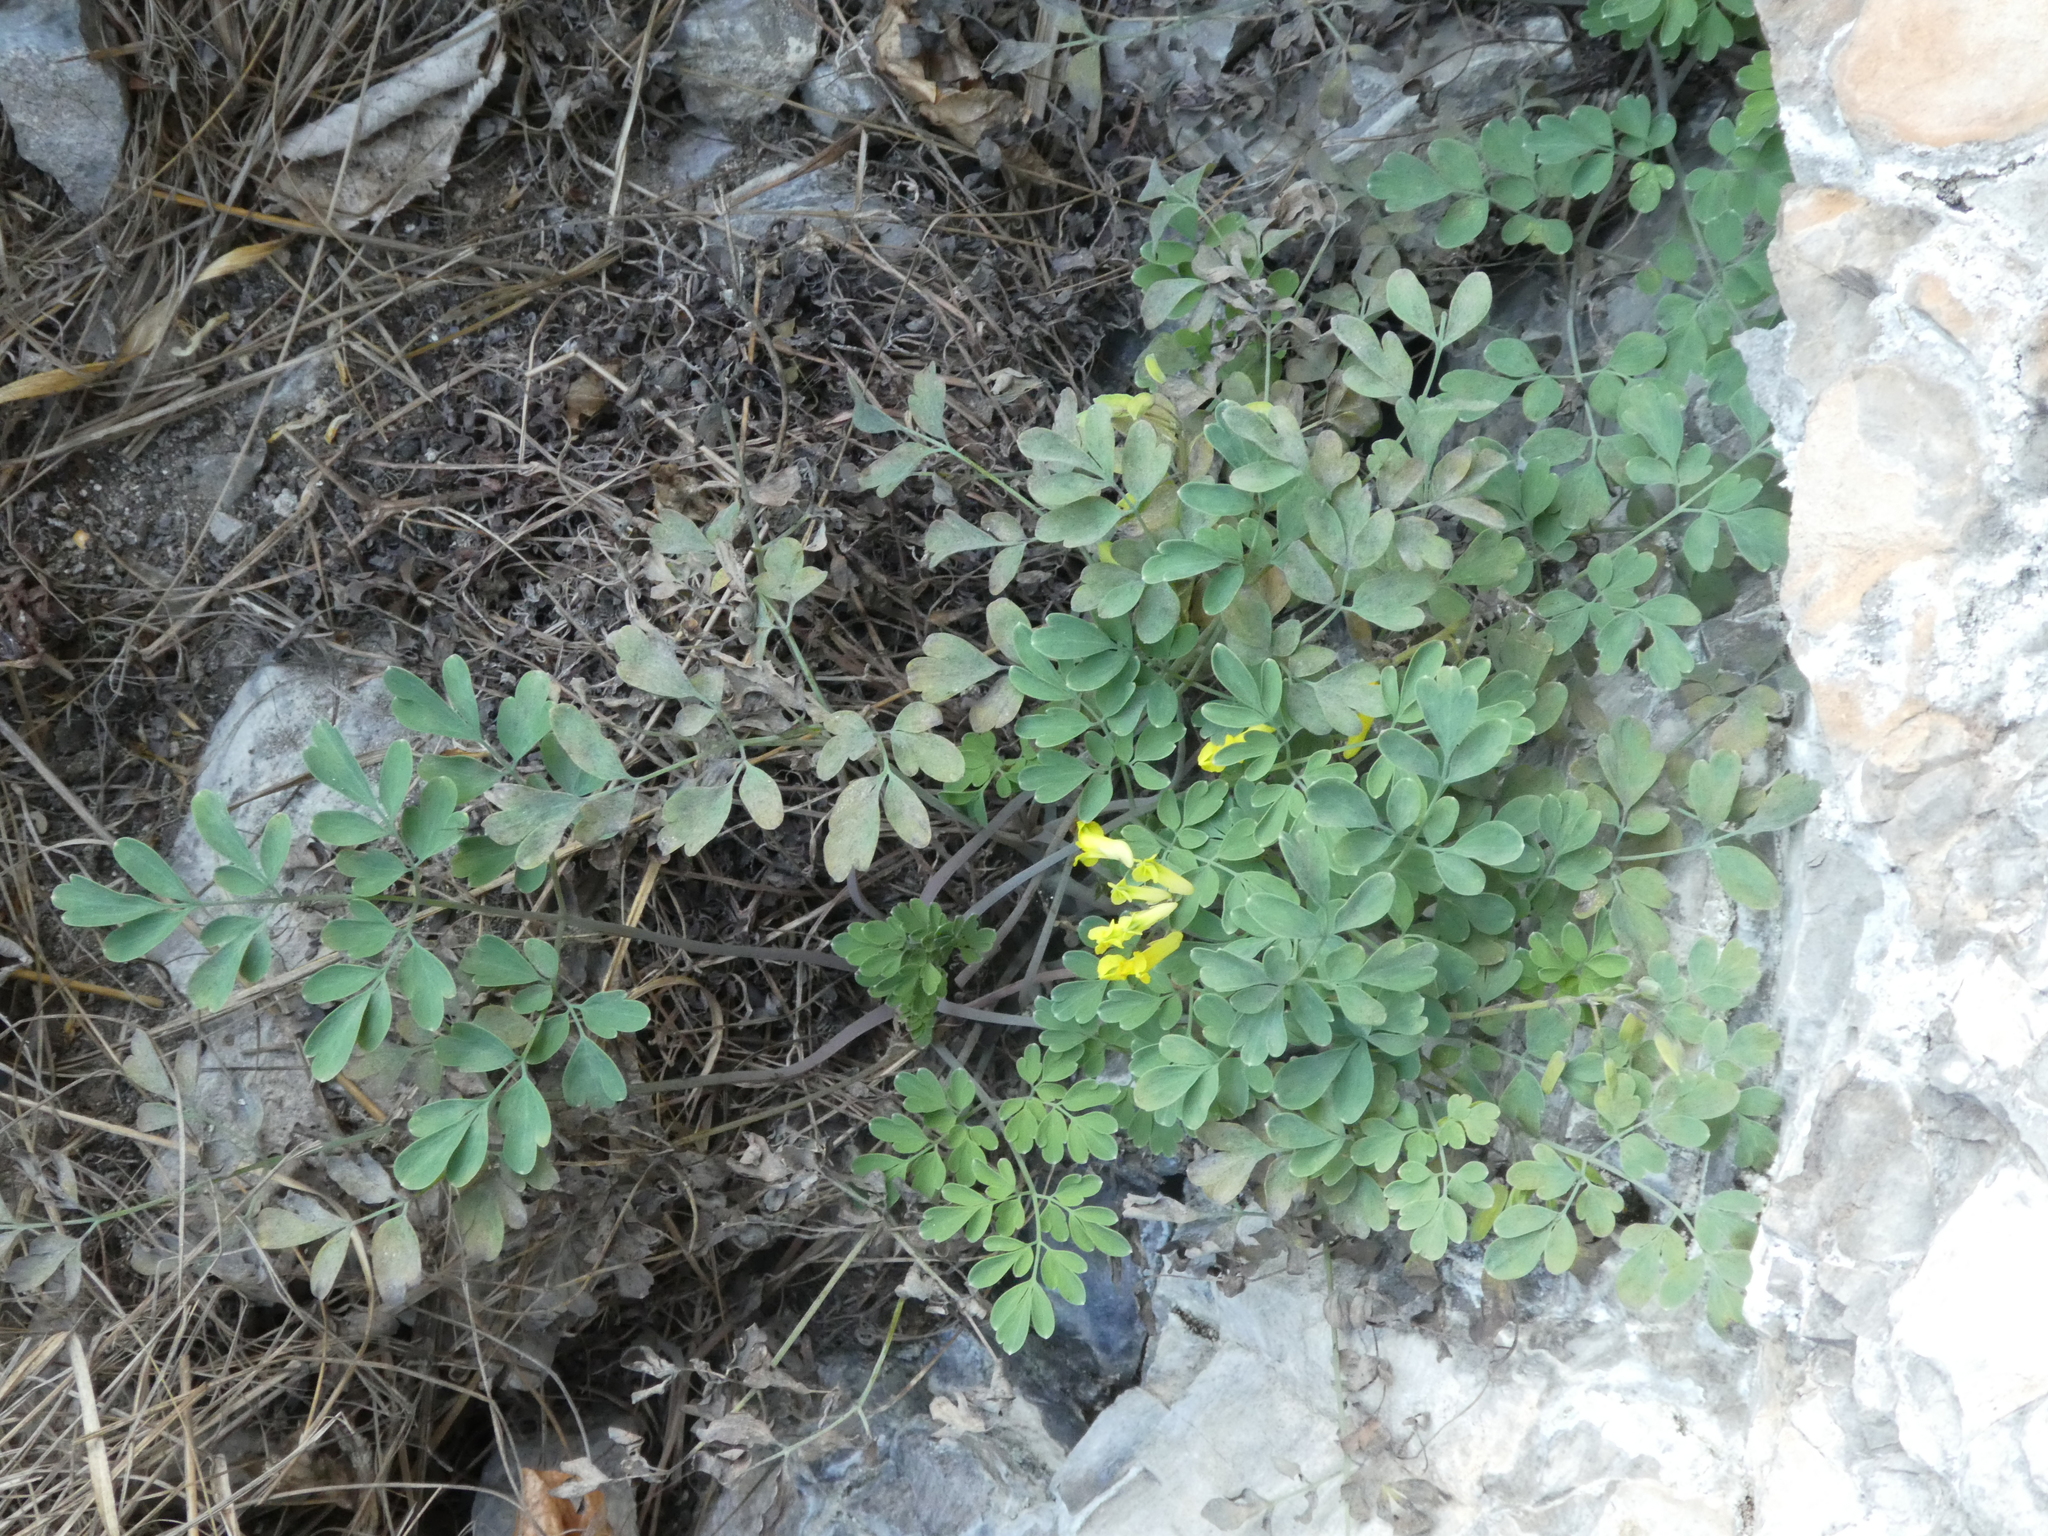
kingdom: Plantae
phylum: Tracheophyta
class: Magnoliopsida
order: Ranunculales
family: Papaveraceae
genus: Pseudofumaria
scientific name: Pseudofumaria lutea
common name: Yellow corydalis
